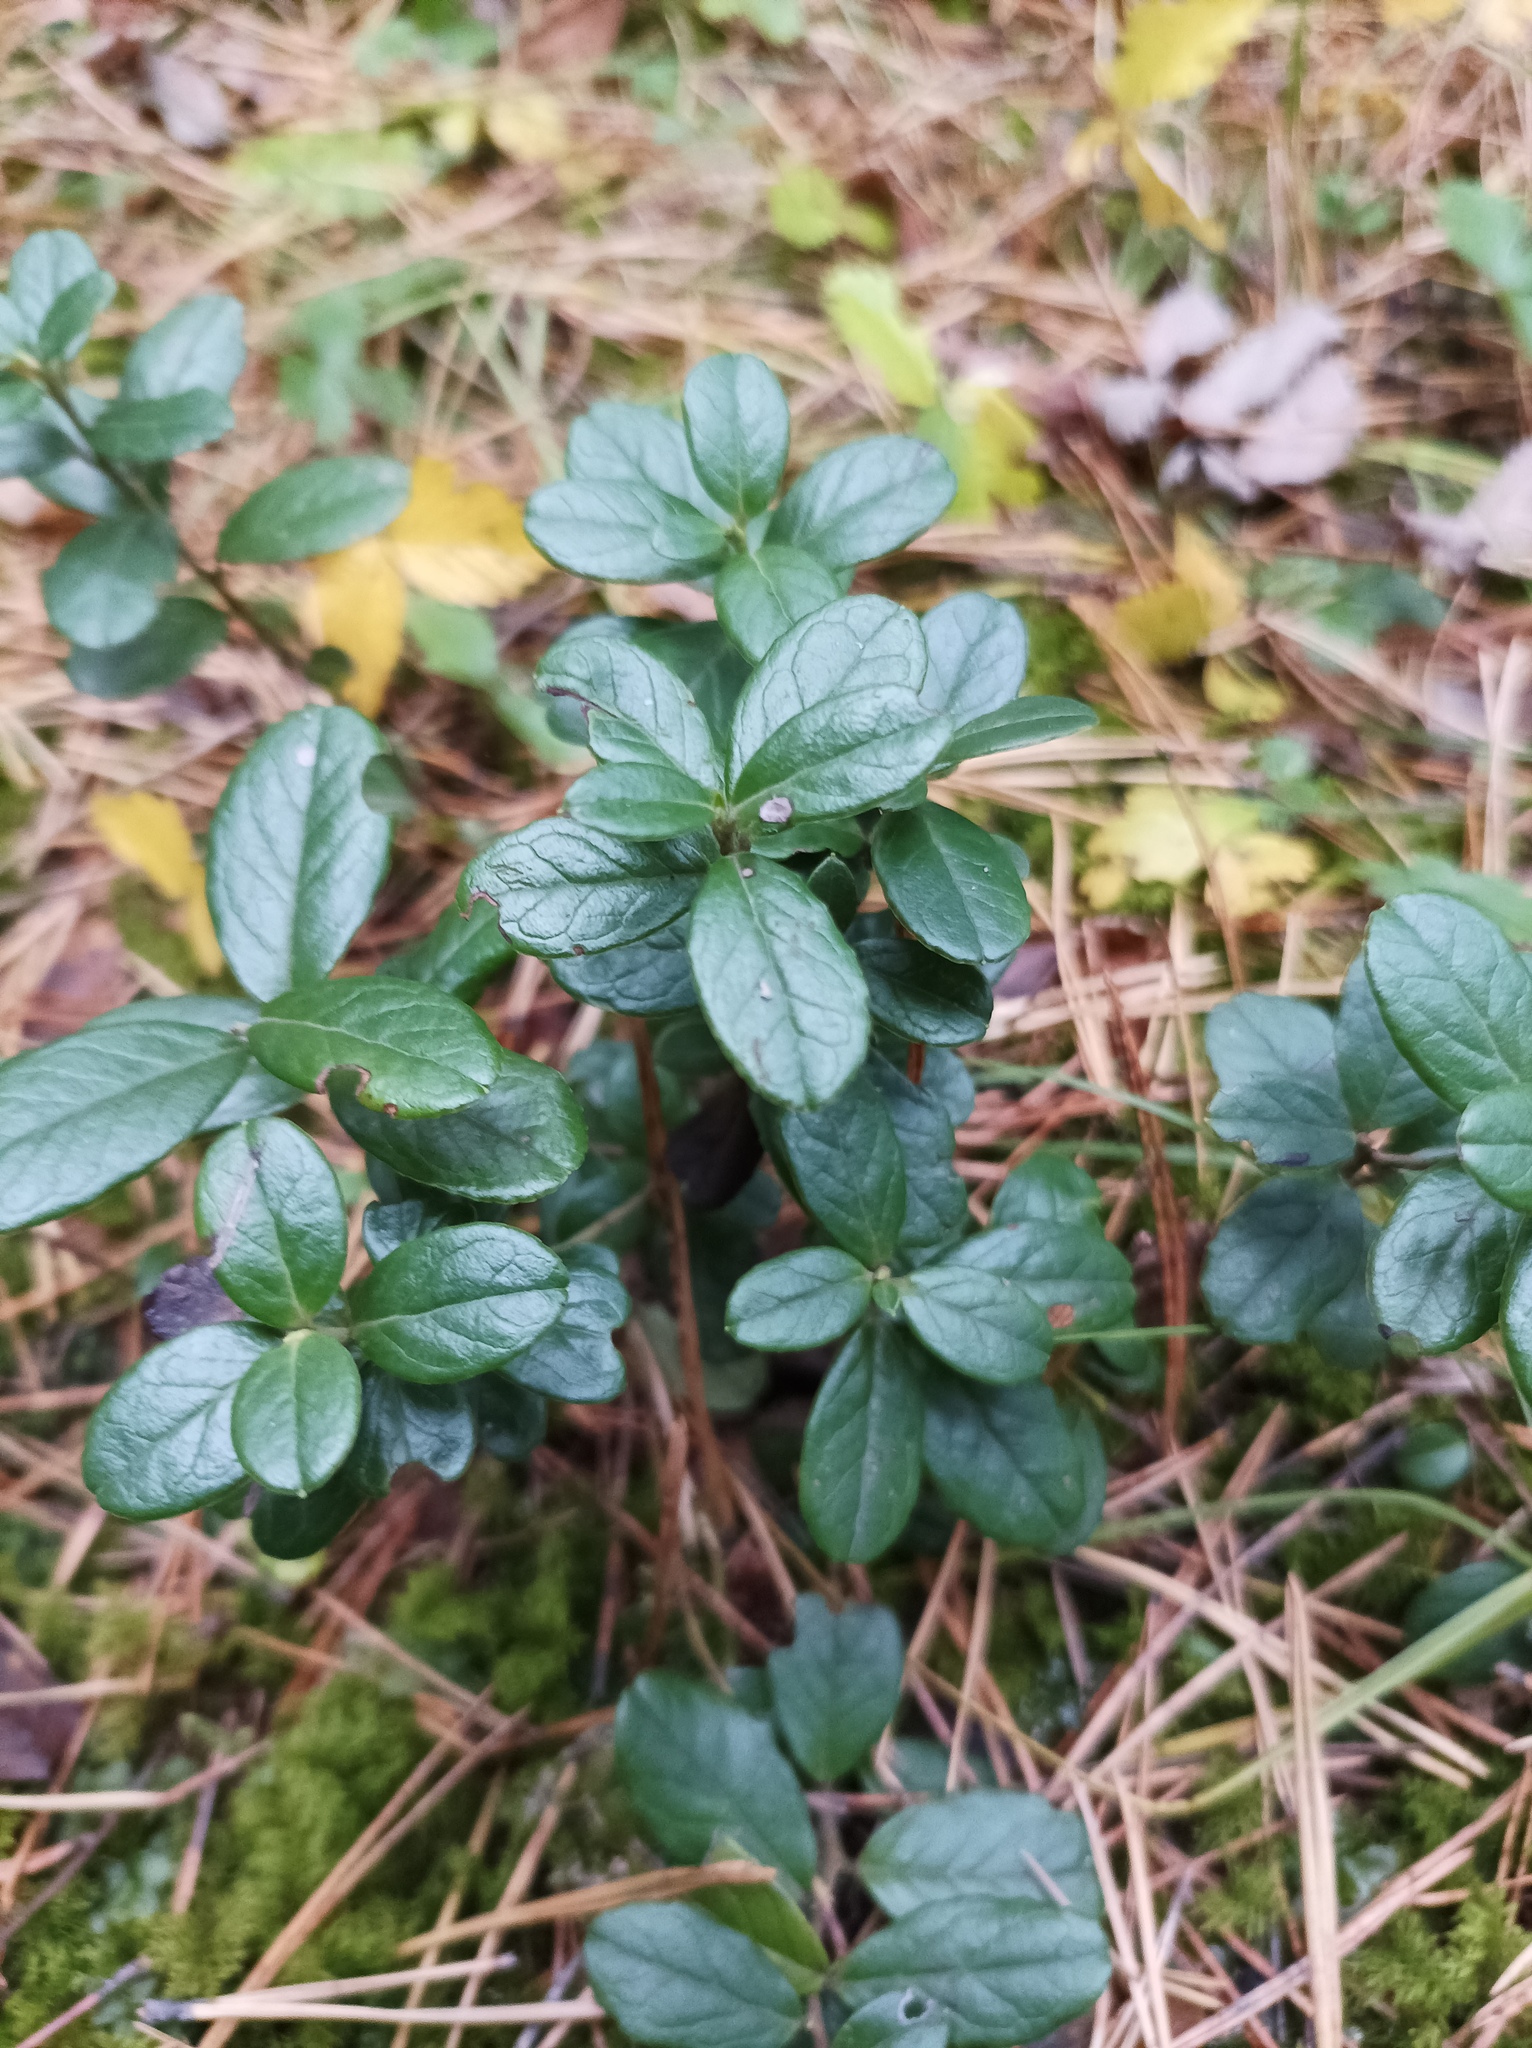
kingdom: Plantae
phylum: Tracheophyta
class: Magnoliopsida
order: Ericales
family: Ericaceae
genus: Vaccinium
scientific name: Vaccinium vitis-idaea
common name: Cowberry
